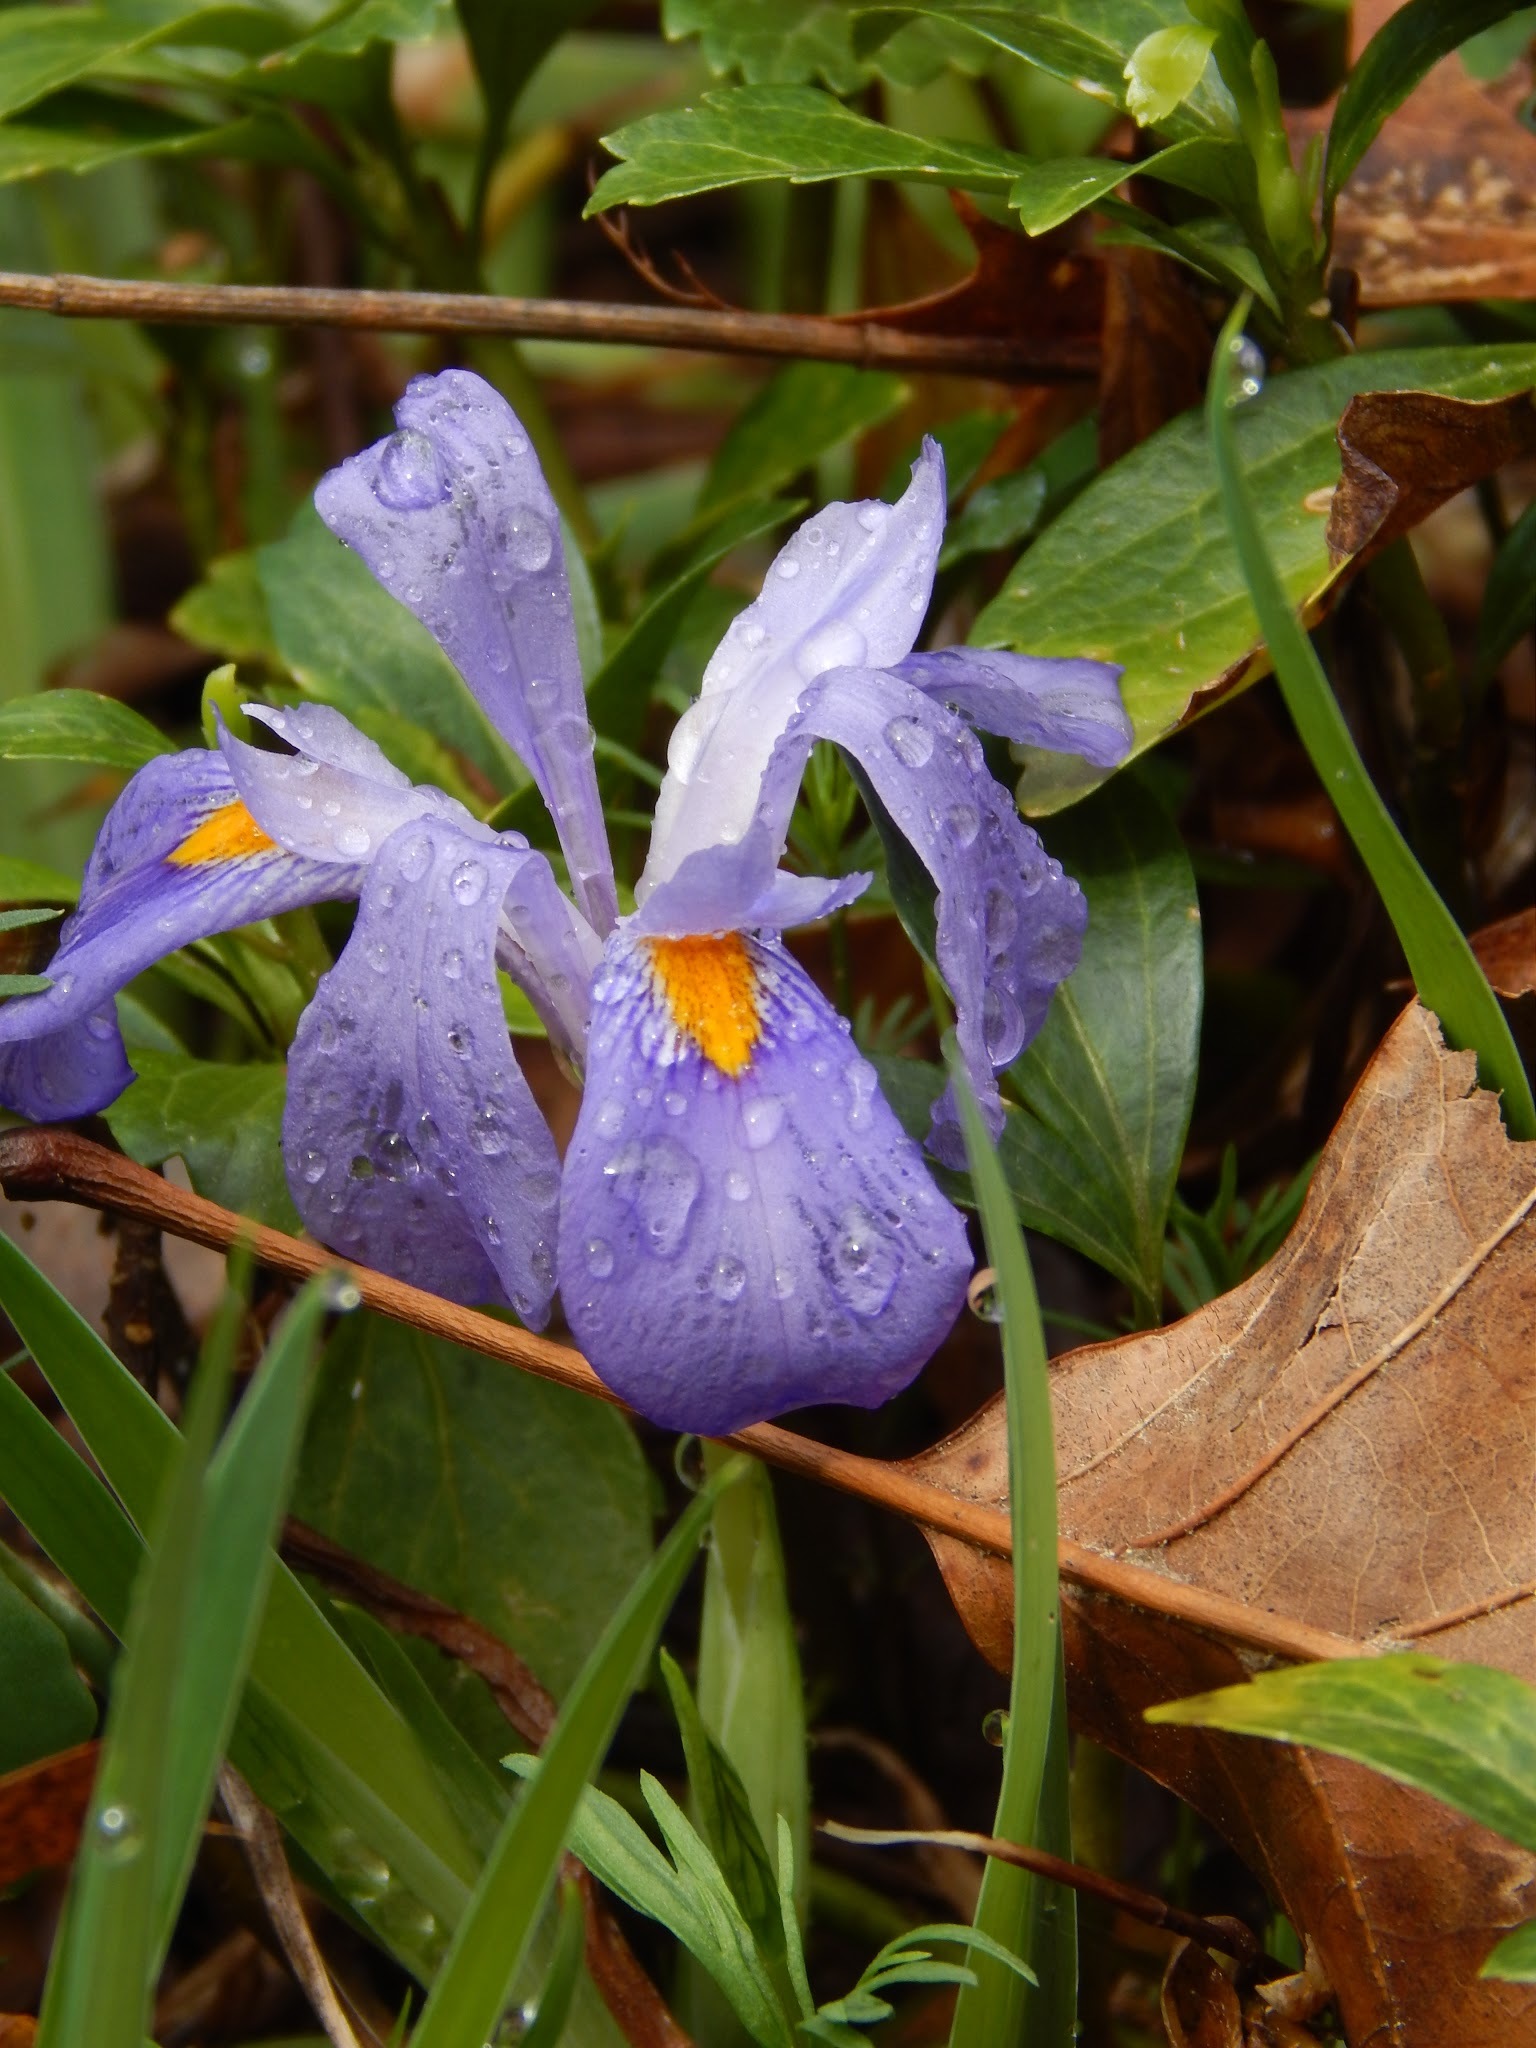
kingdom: Plantae
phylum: Tracheophyta
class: Liliopsida
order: Asparagales
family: Iridaceae
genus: Iris
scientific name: Iris verna
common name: Dwarf iris
